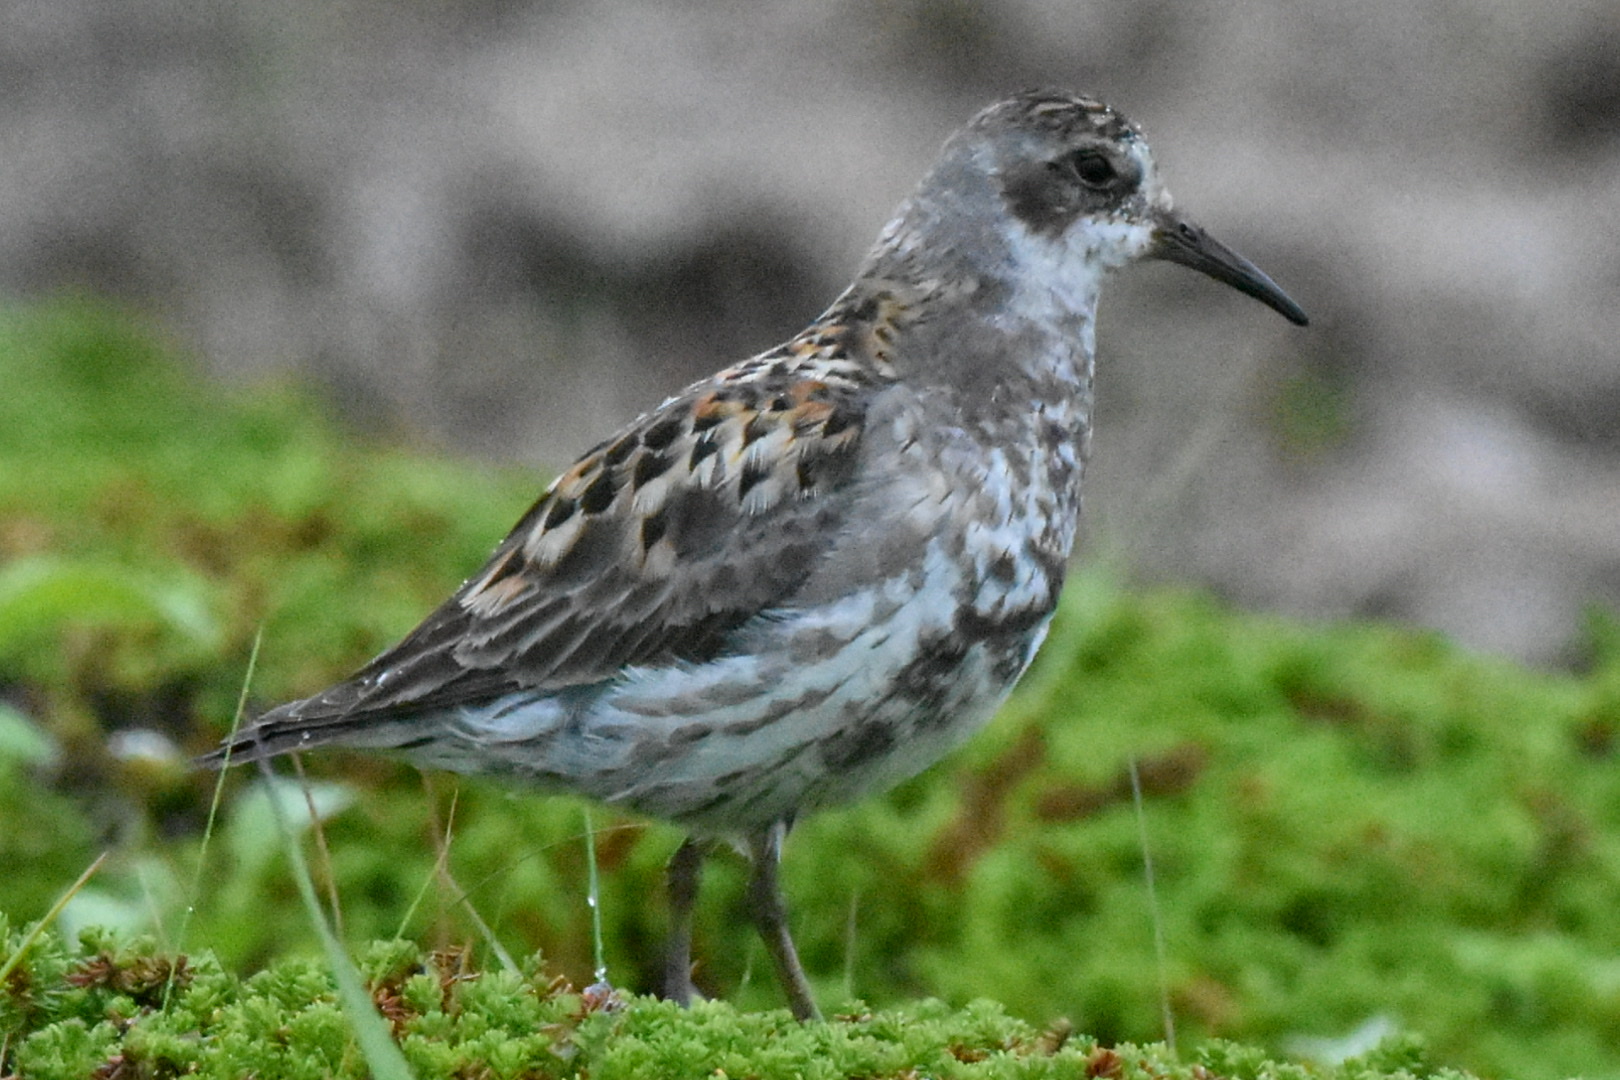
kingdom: Animalia
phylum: Chordata
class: Aves
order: Charadriiformes
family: Scolopacidae
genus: Calidris
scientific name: Calidris ptilocnemis
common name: Rock sandpiper
